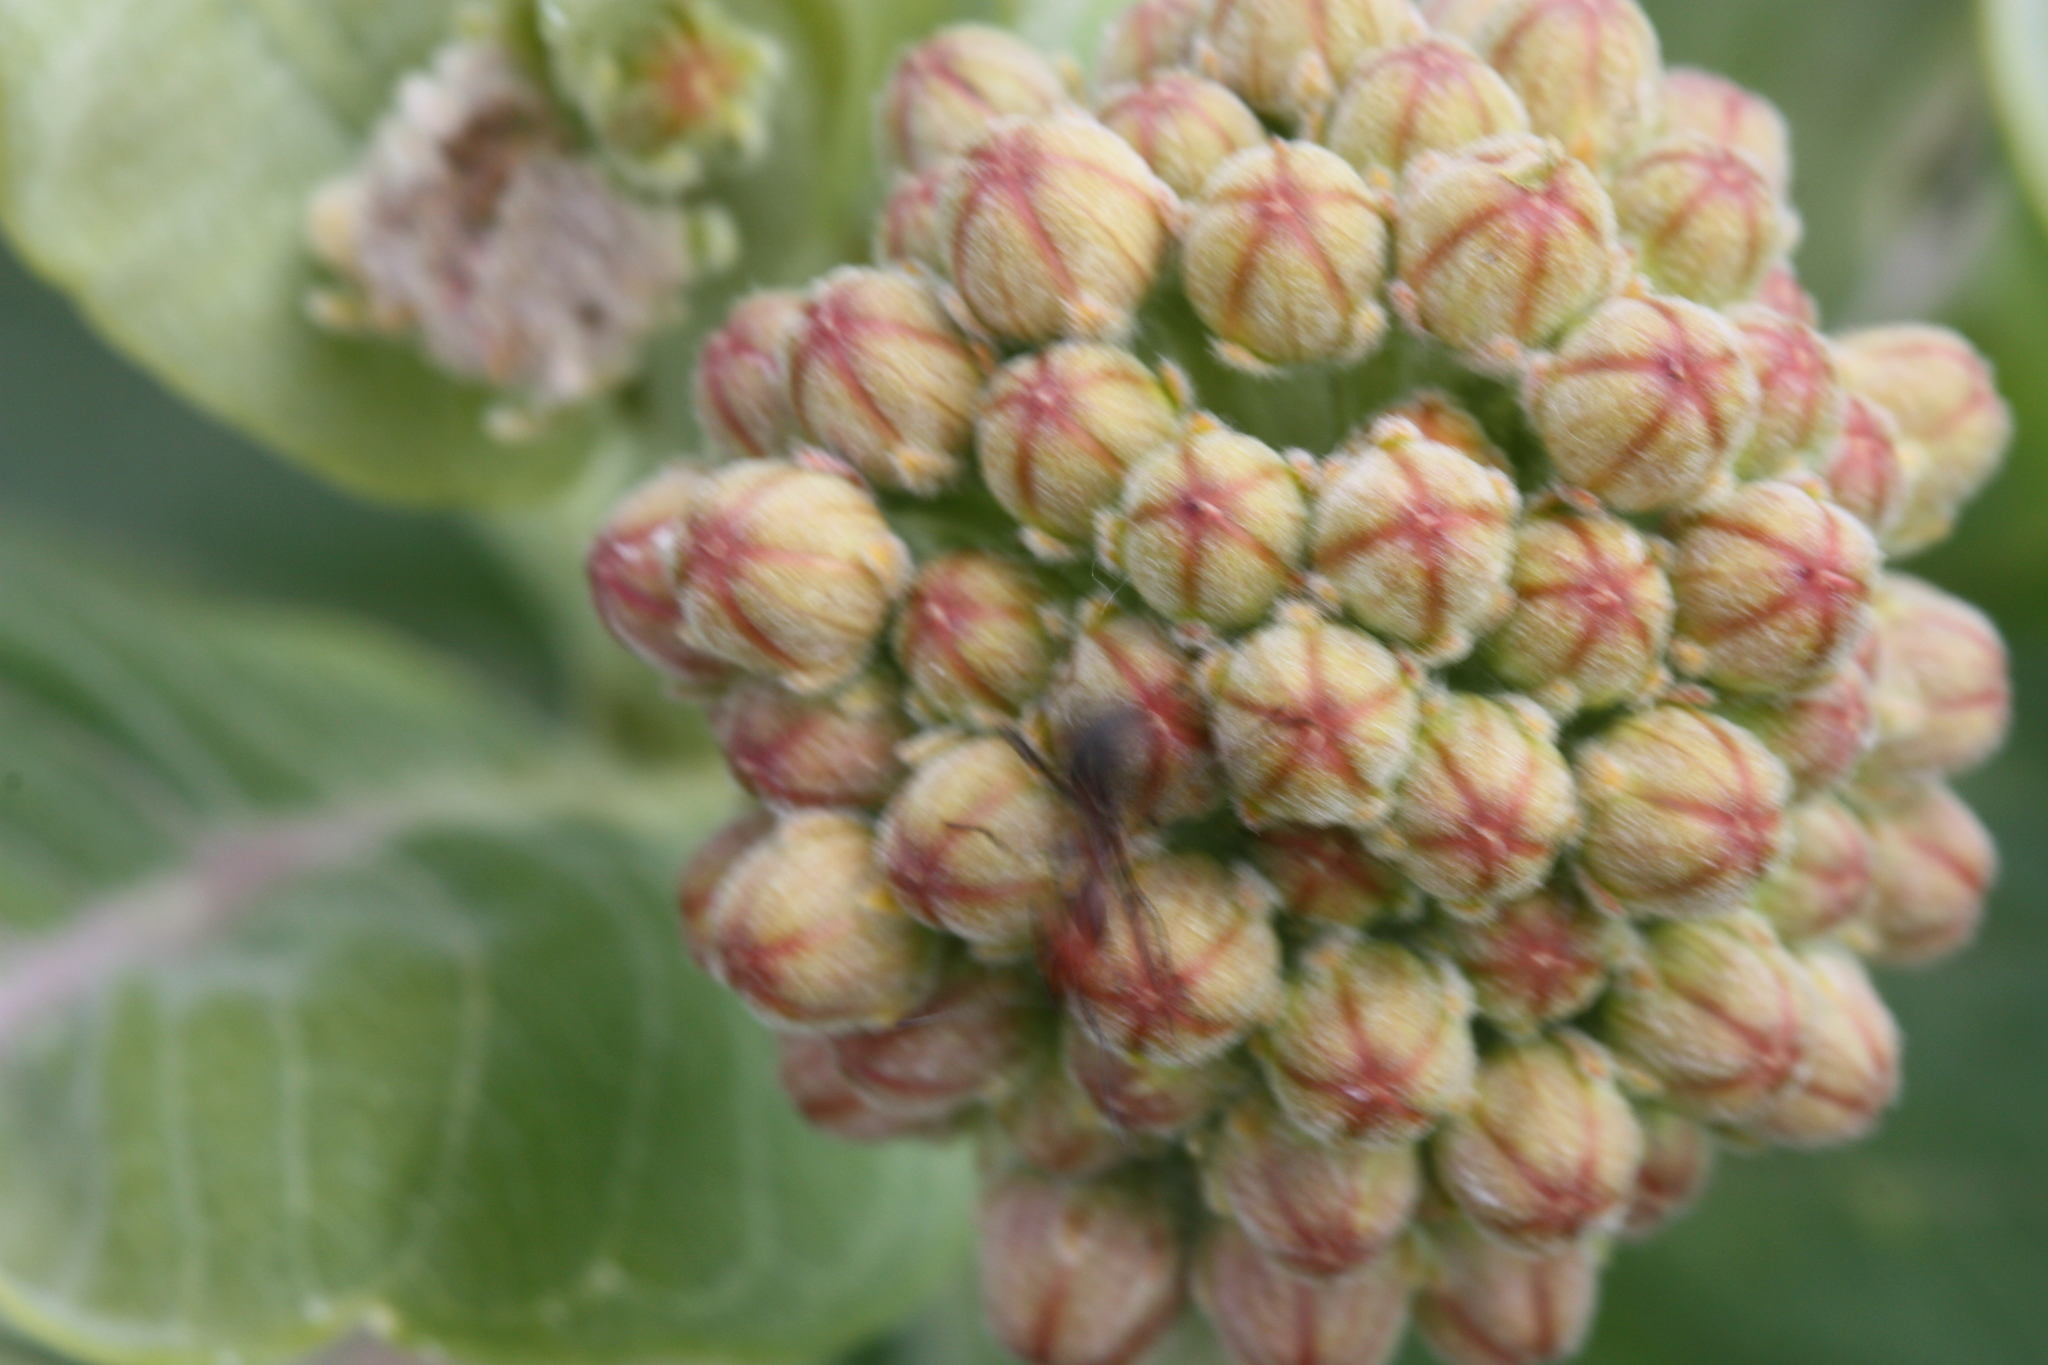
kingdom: Plantae
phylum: Tracheophyta
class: Magnoliopsida
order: Gentianales
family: Apocynaceae
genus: Asclepias
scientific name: Asclepias speciosa
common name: Showy milkweed
